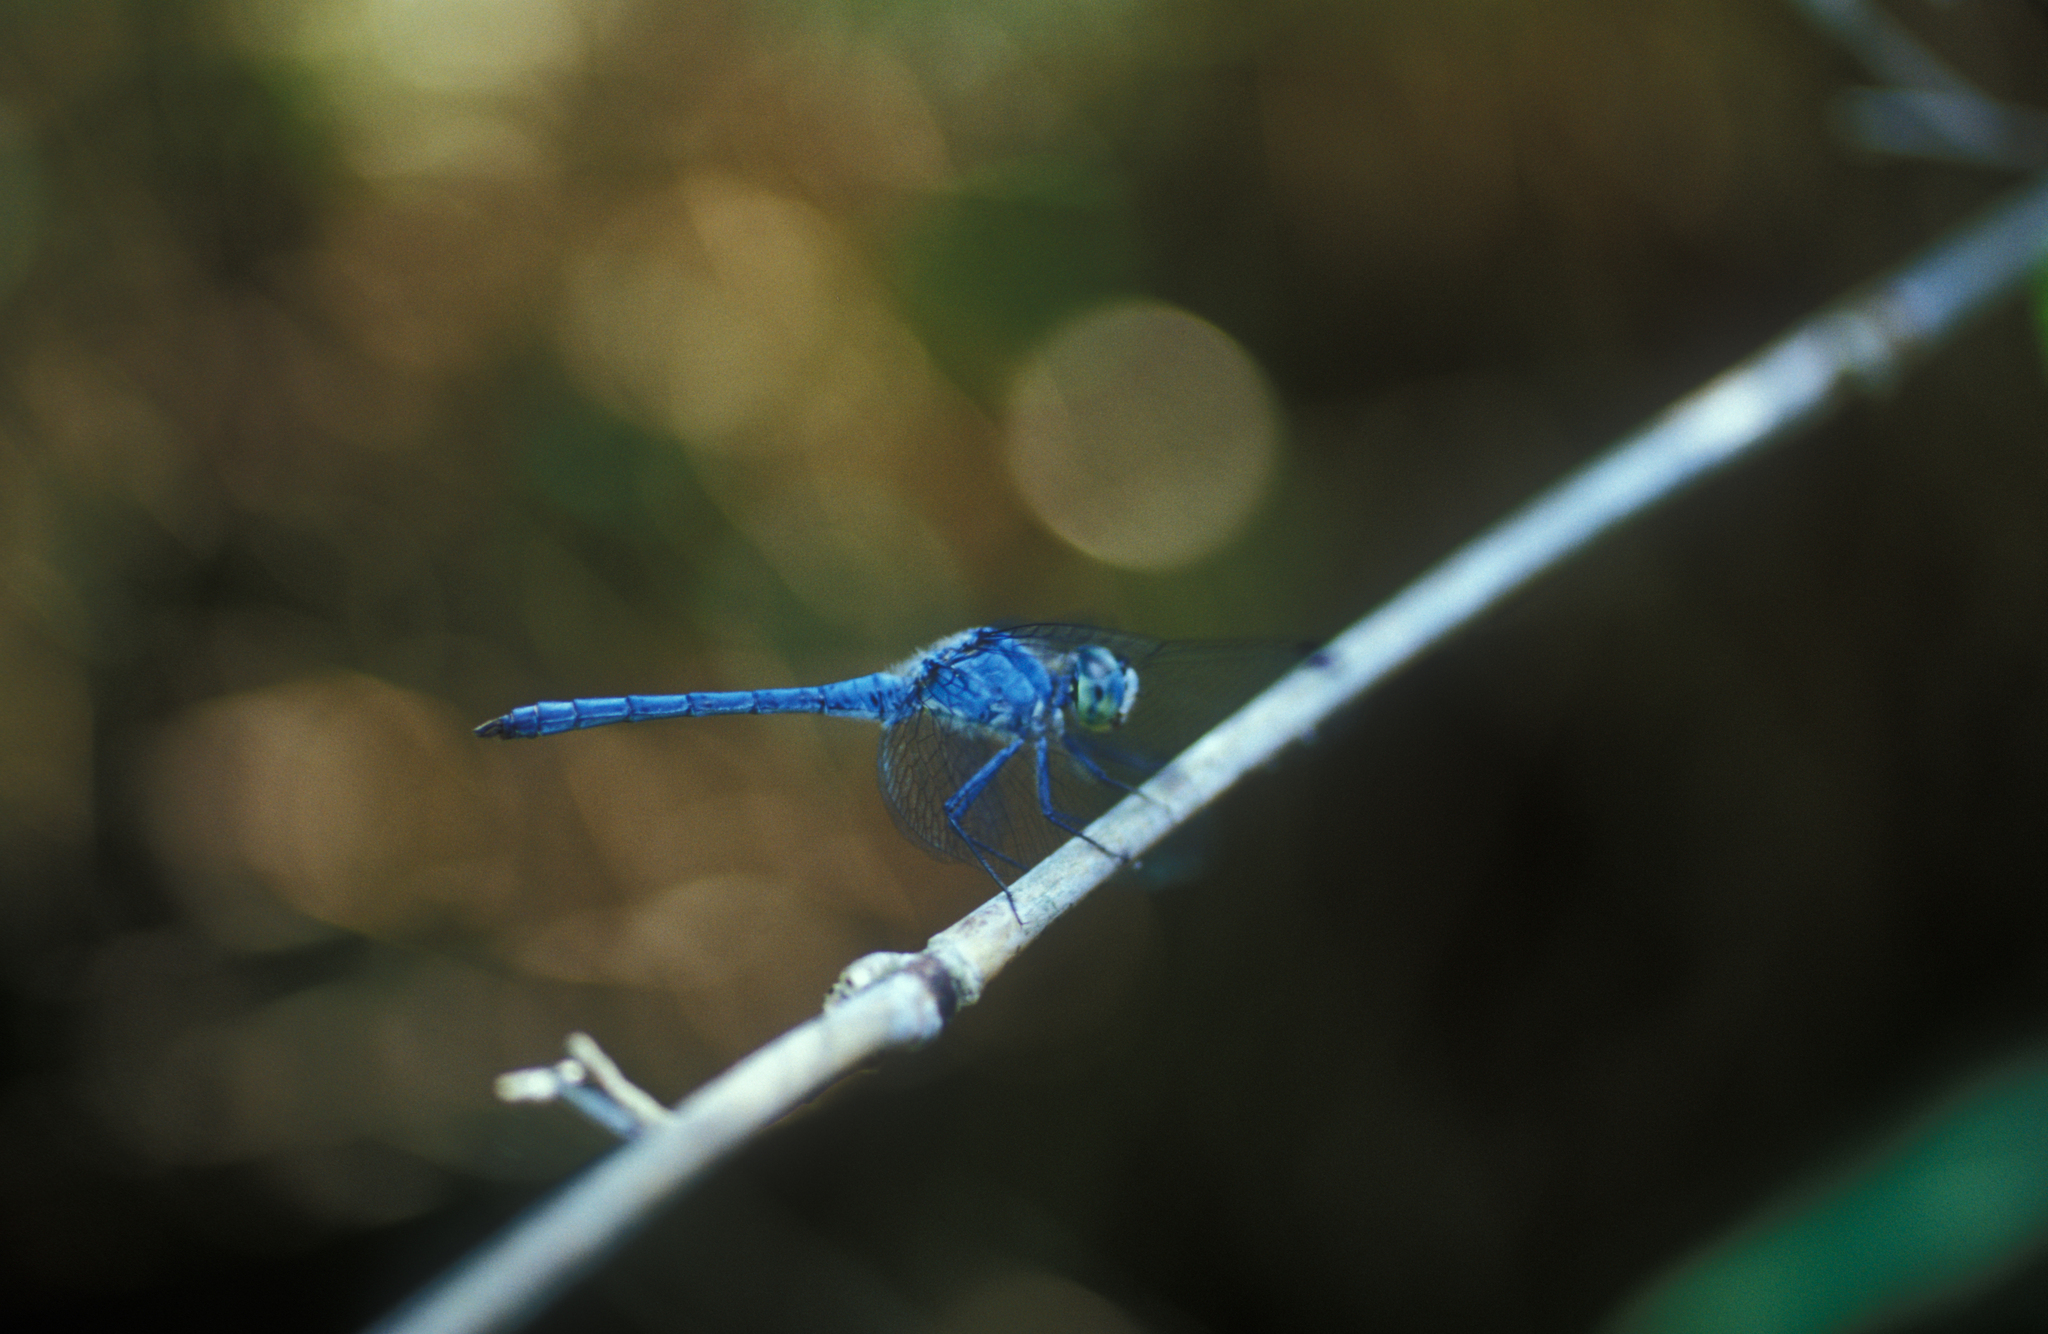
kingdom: Animalia
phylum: Arthropoda
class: Insecta
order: Odonata
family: Libellulidae
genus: Sympetrum
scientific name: Sympetrum gracile
